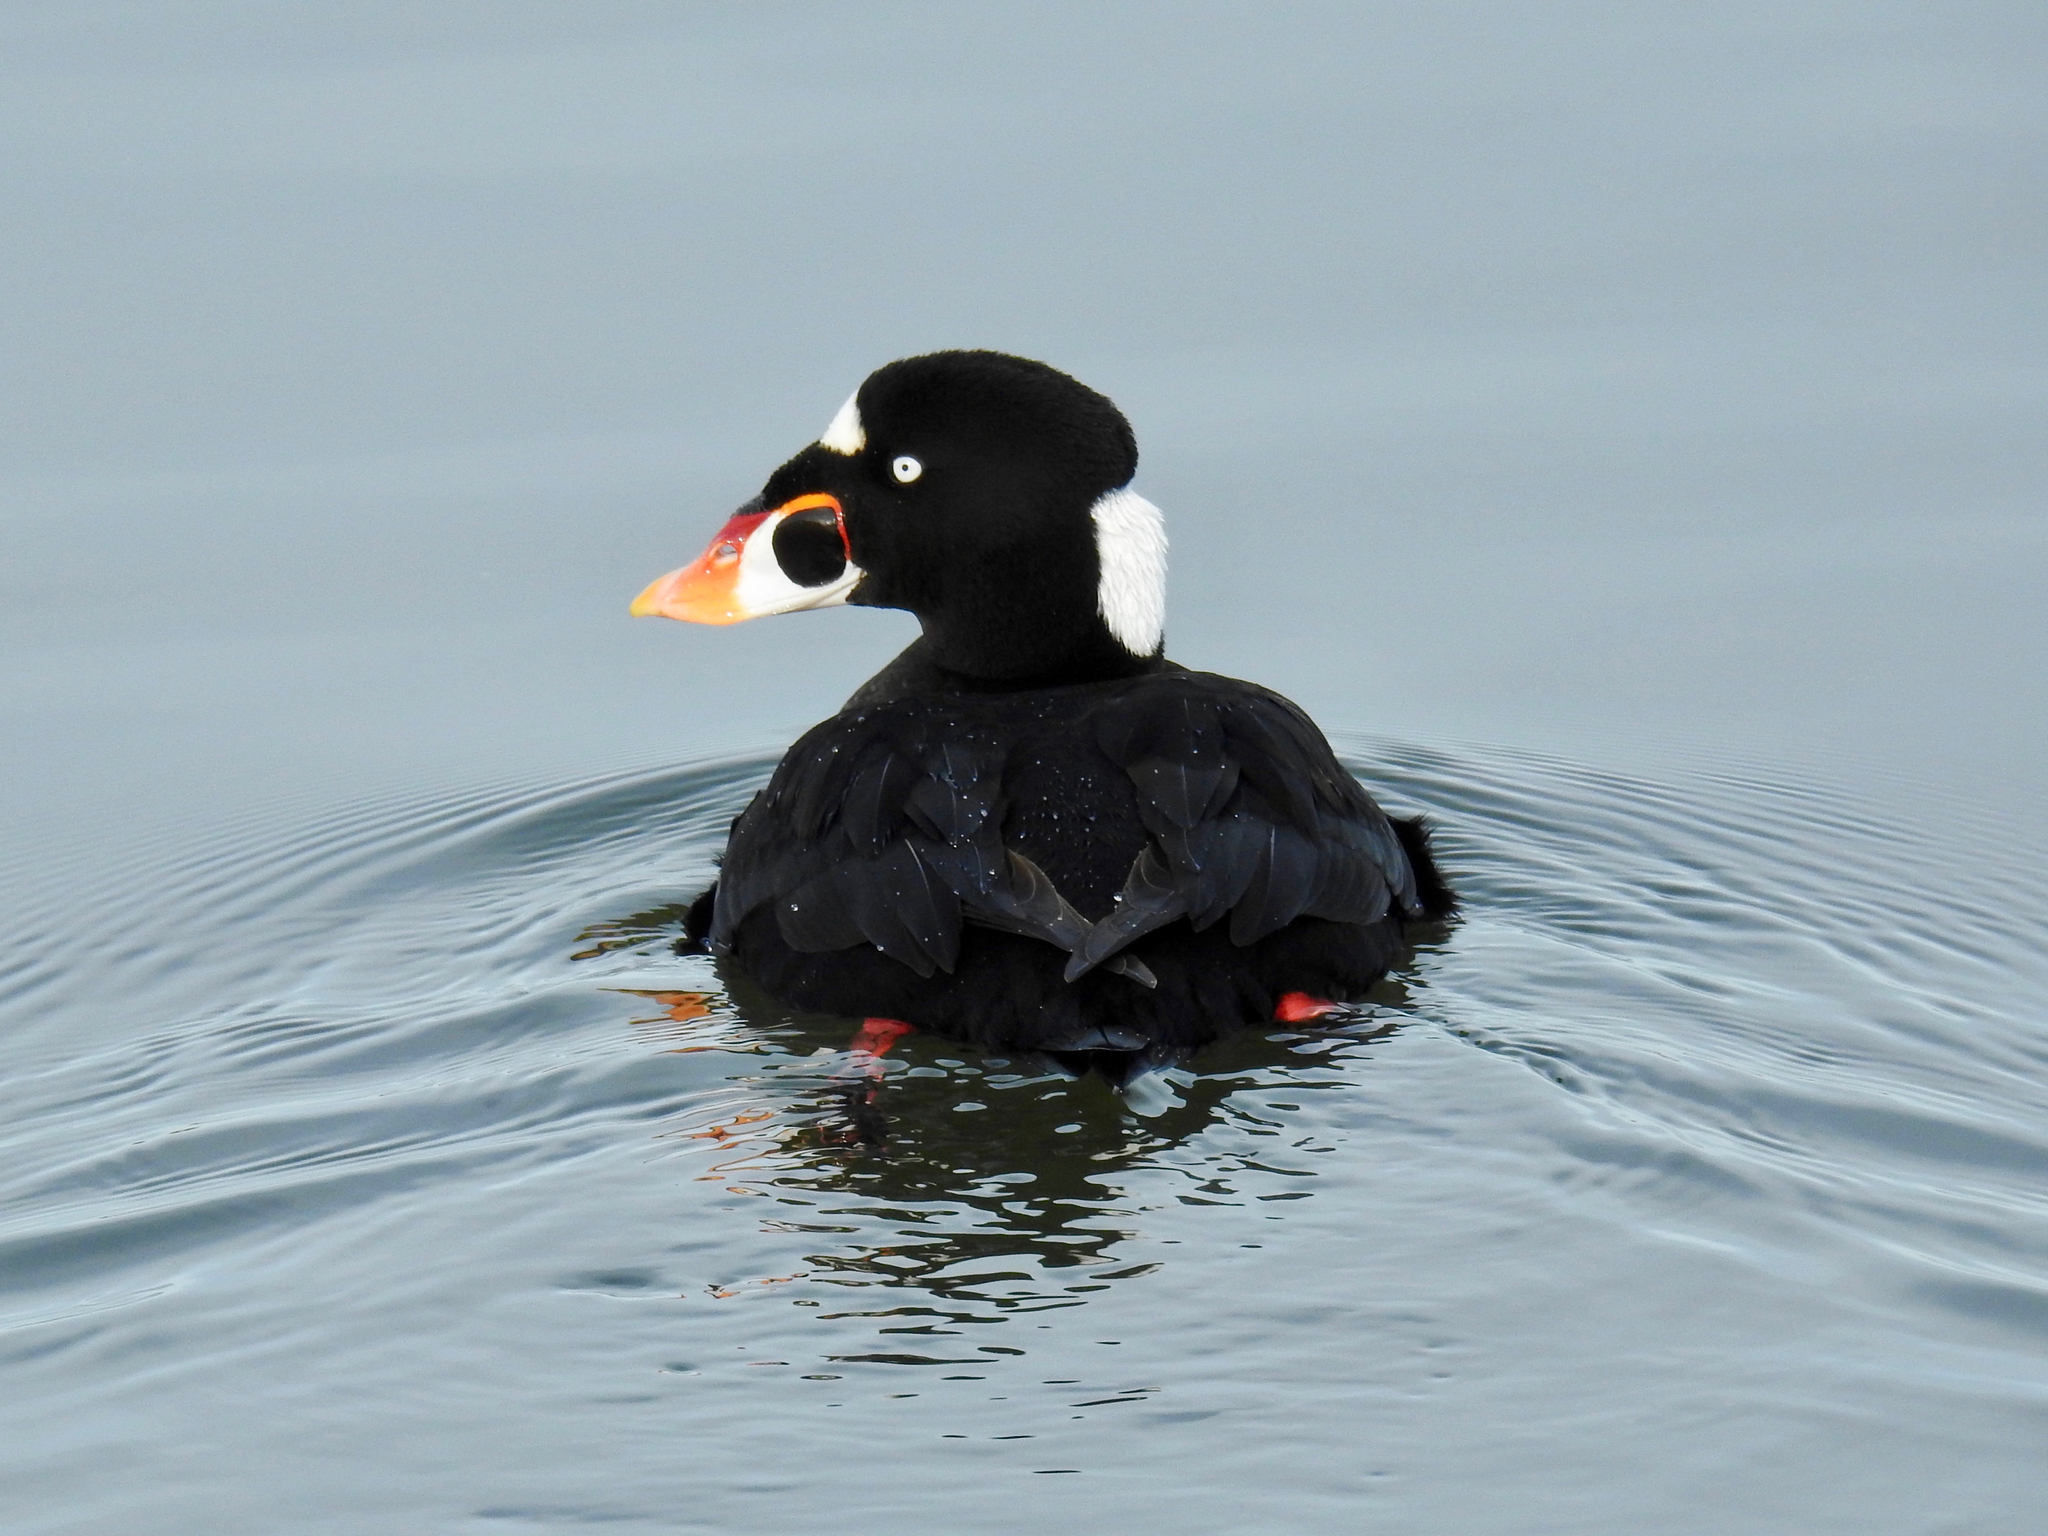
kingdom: Animalia
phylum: Chordata
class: Aves
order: Anseriformes
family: Anatidae
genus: Melanitta
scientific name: Melanitta perspicillata
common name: Surf scoter
